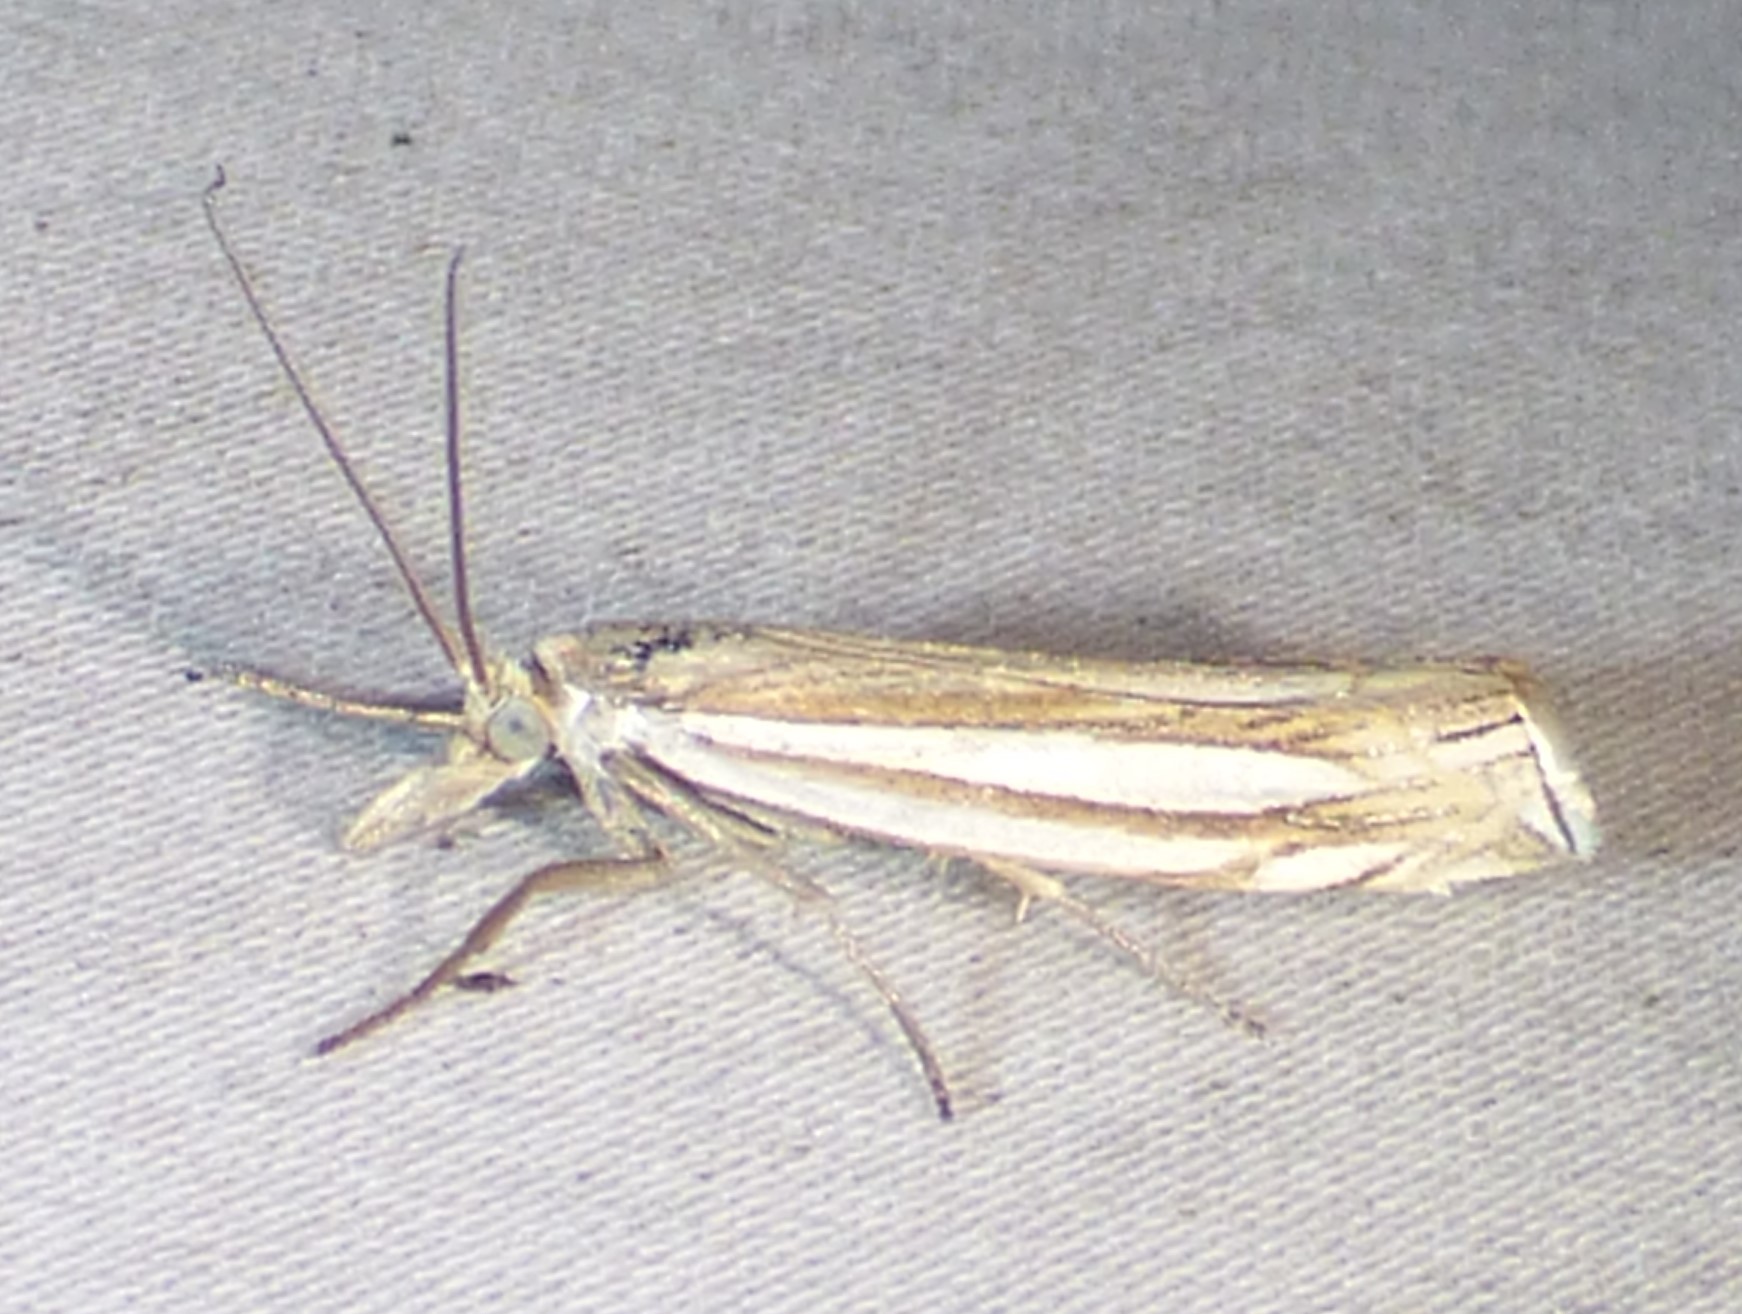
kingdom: Animalia
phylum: Arthropoda
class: Insecta
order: Lepidoptera
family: Crambidae
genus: Crambus
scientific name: Crambus laqueatellus
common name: Eastern grass-veneer
